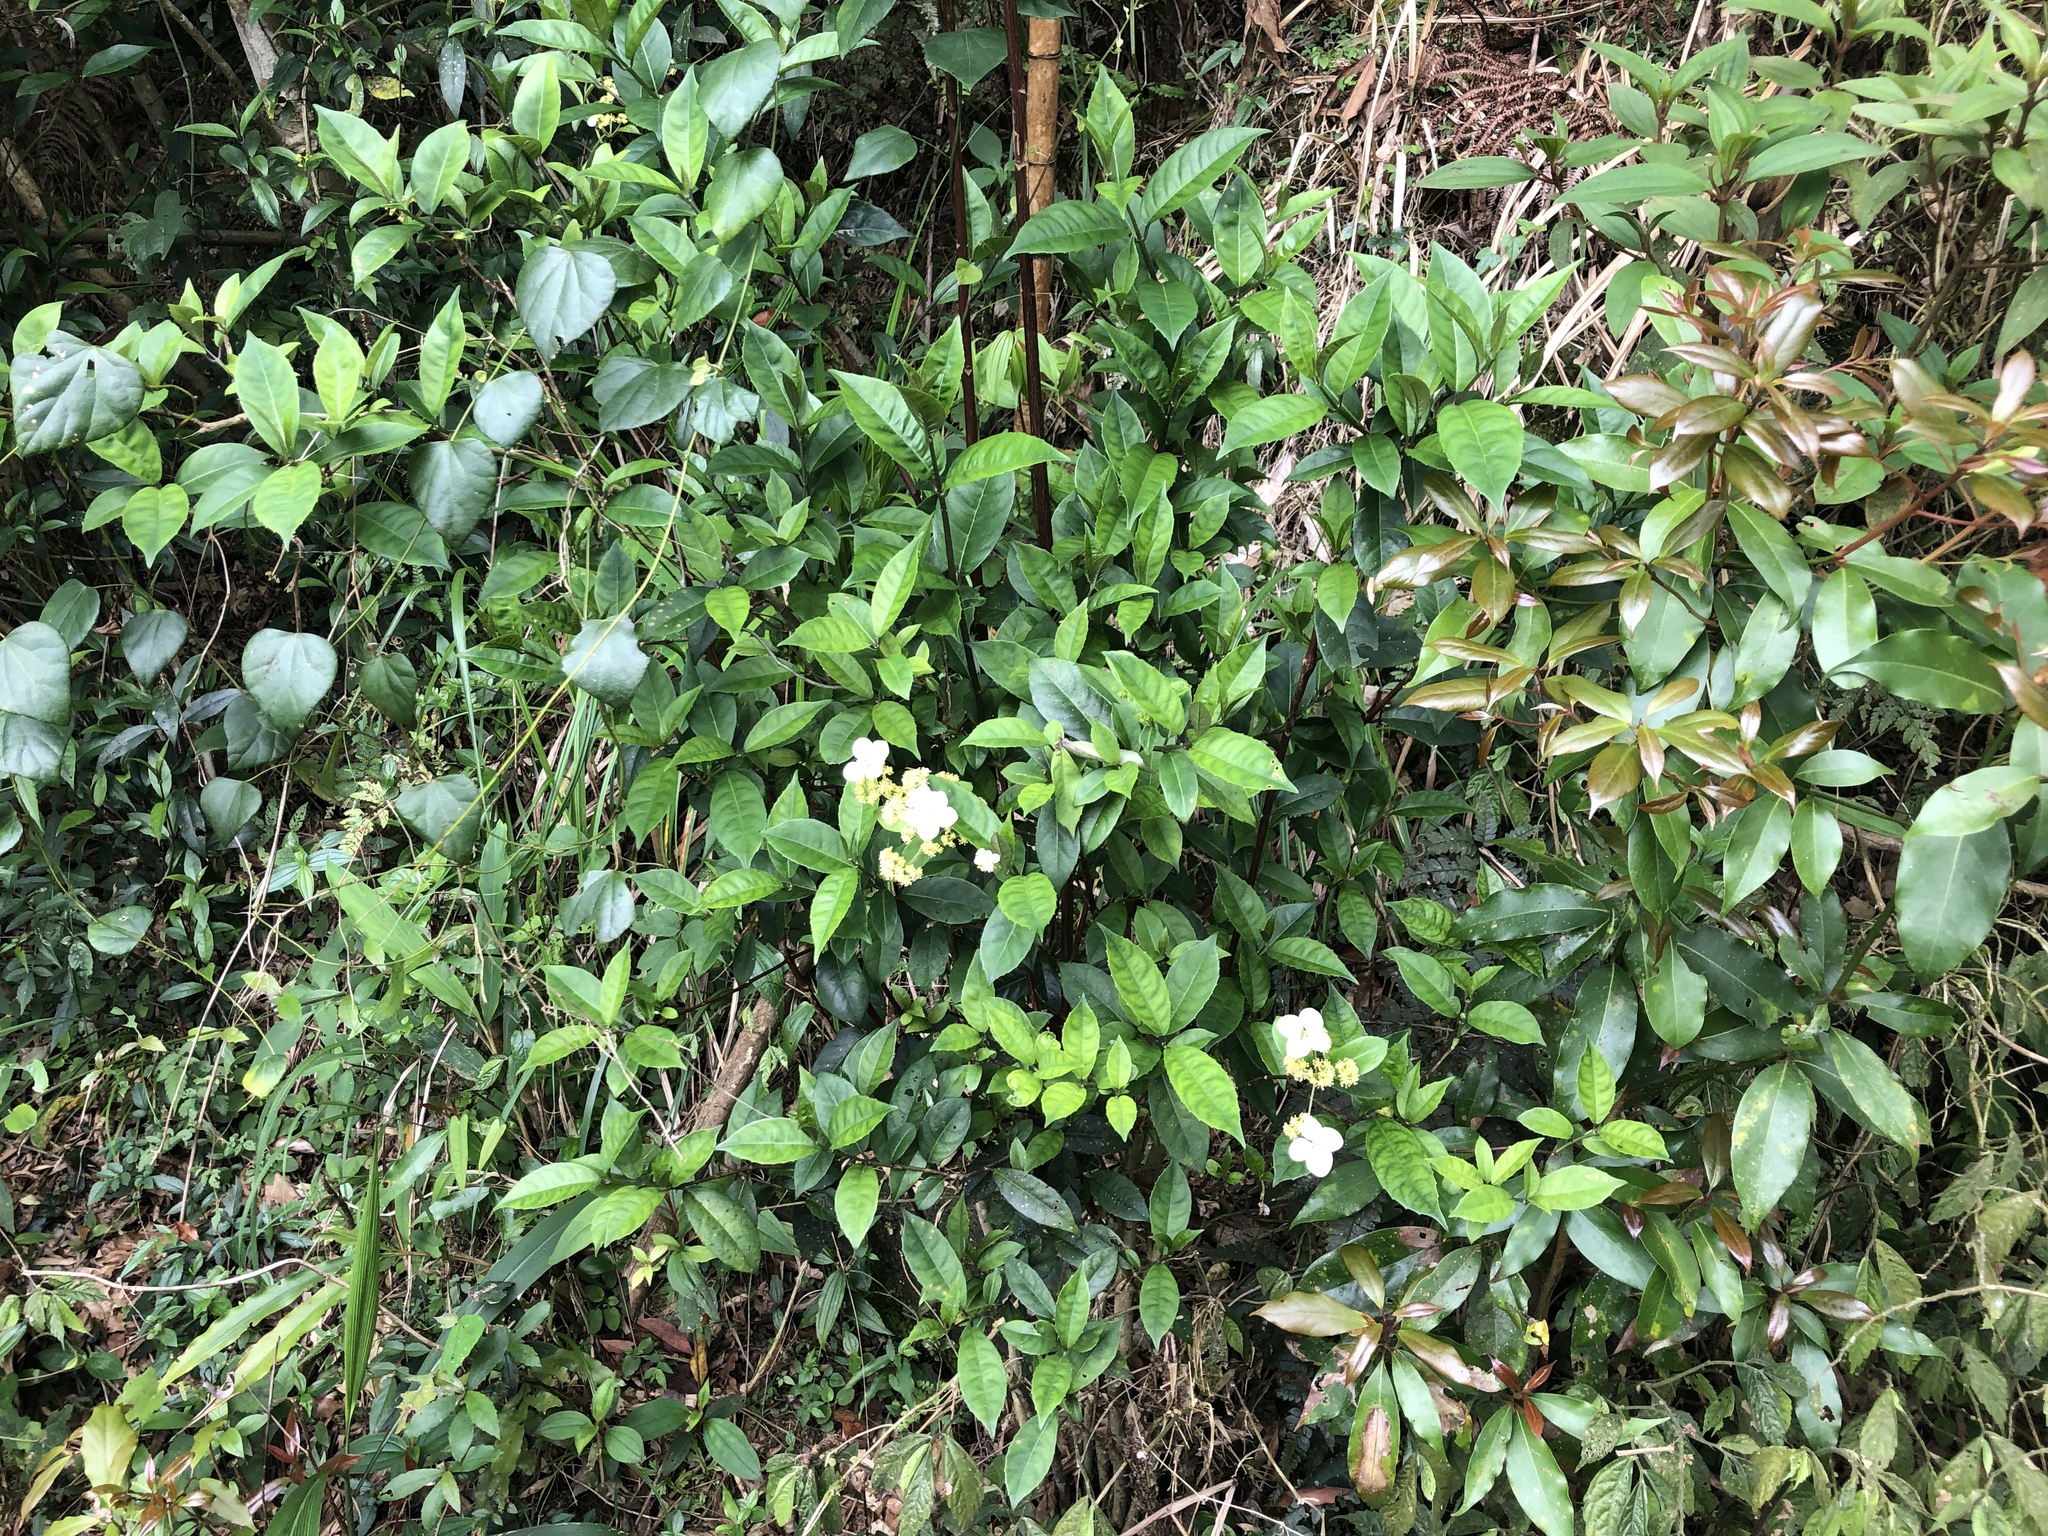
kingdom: Plantae
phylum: Tracheophyta
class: Magnoliopsida
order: Cornales
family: Hydrangeaceae
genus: Hydrangea
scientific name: Hydrangea chinensis
